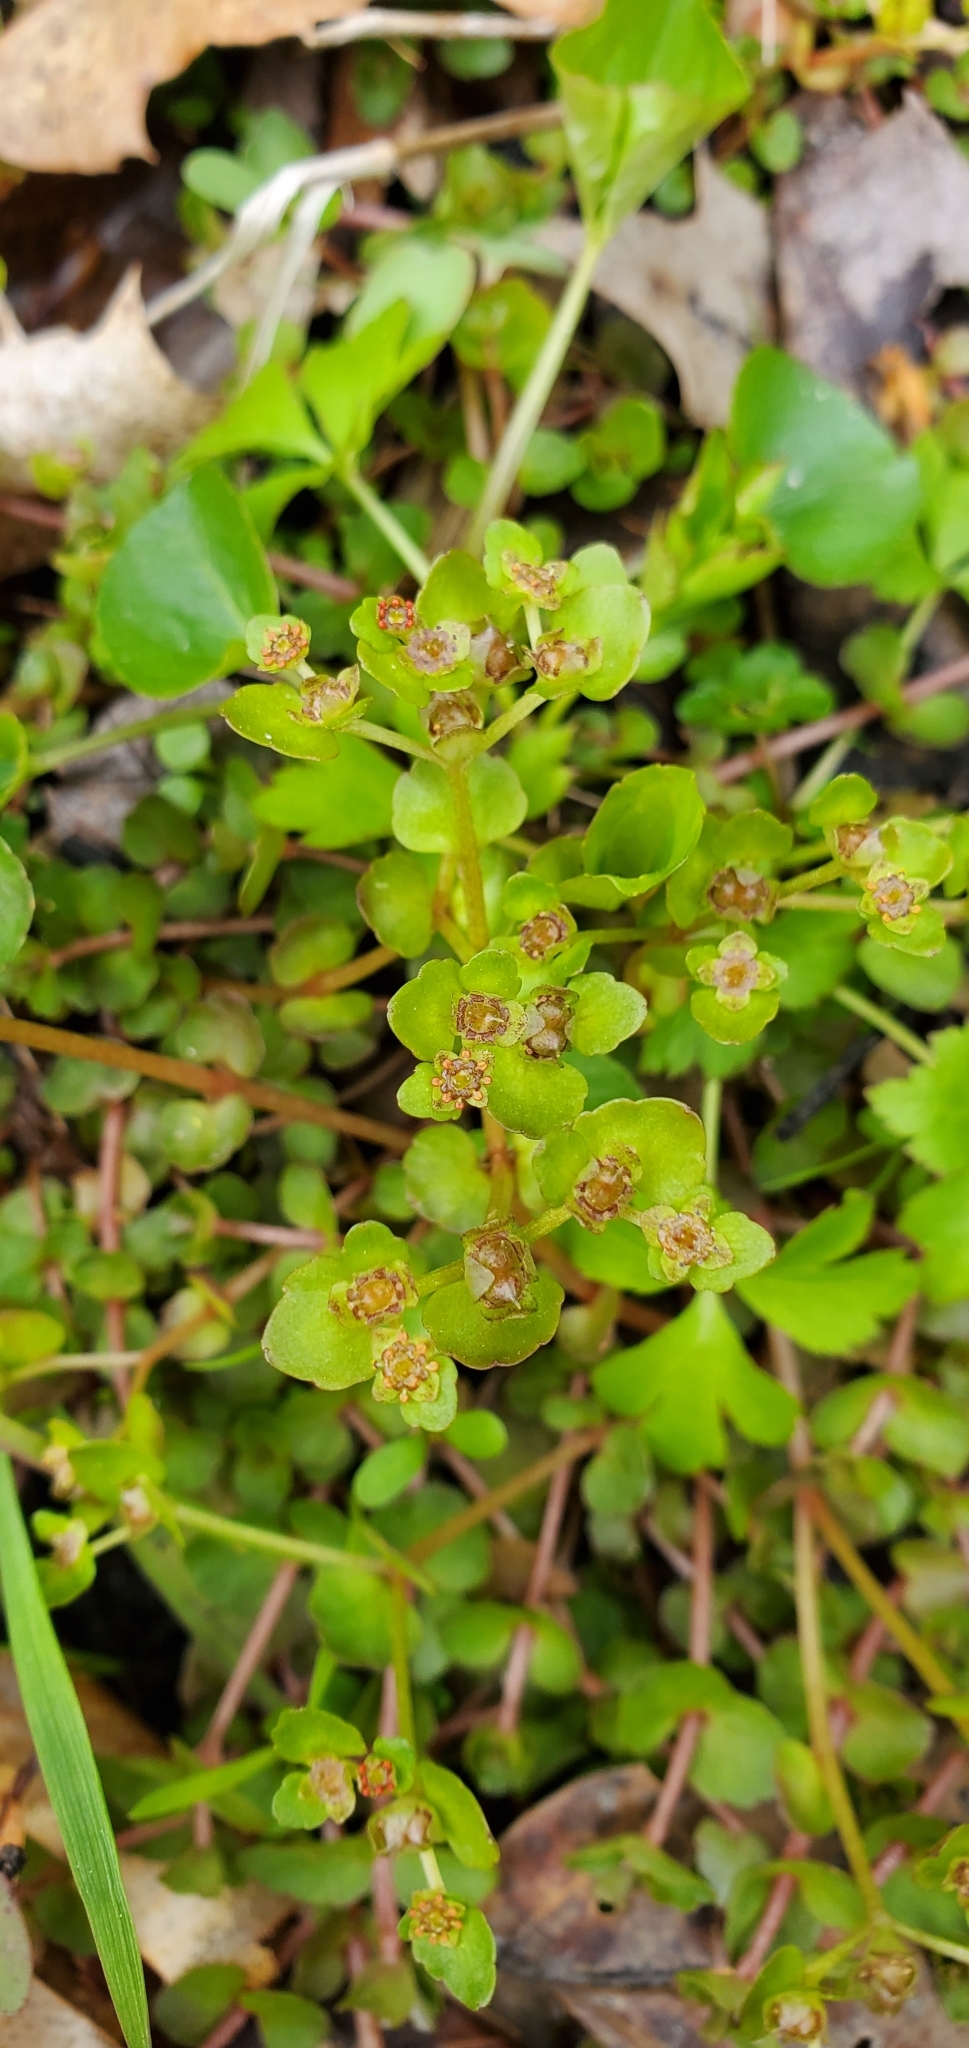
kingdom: Plantae
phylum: Tracheophyta
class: Magnoliopsida
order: Saxifragales
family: Saxifragaceae
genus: Chrysosplenium
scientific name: Chrysosplenium americanum
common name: American golden-saxifrage
